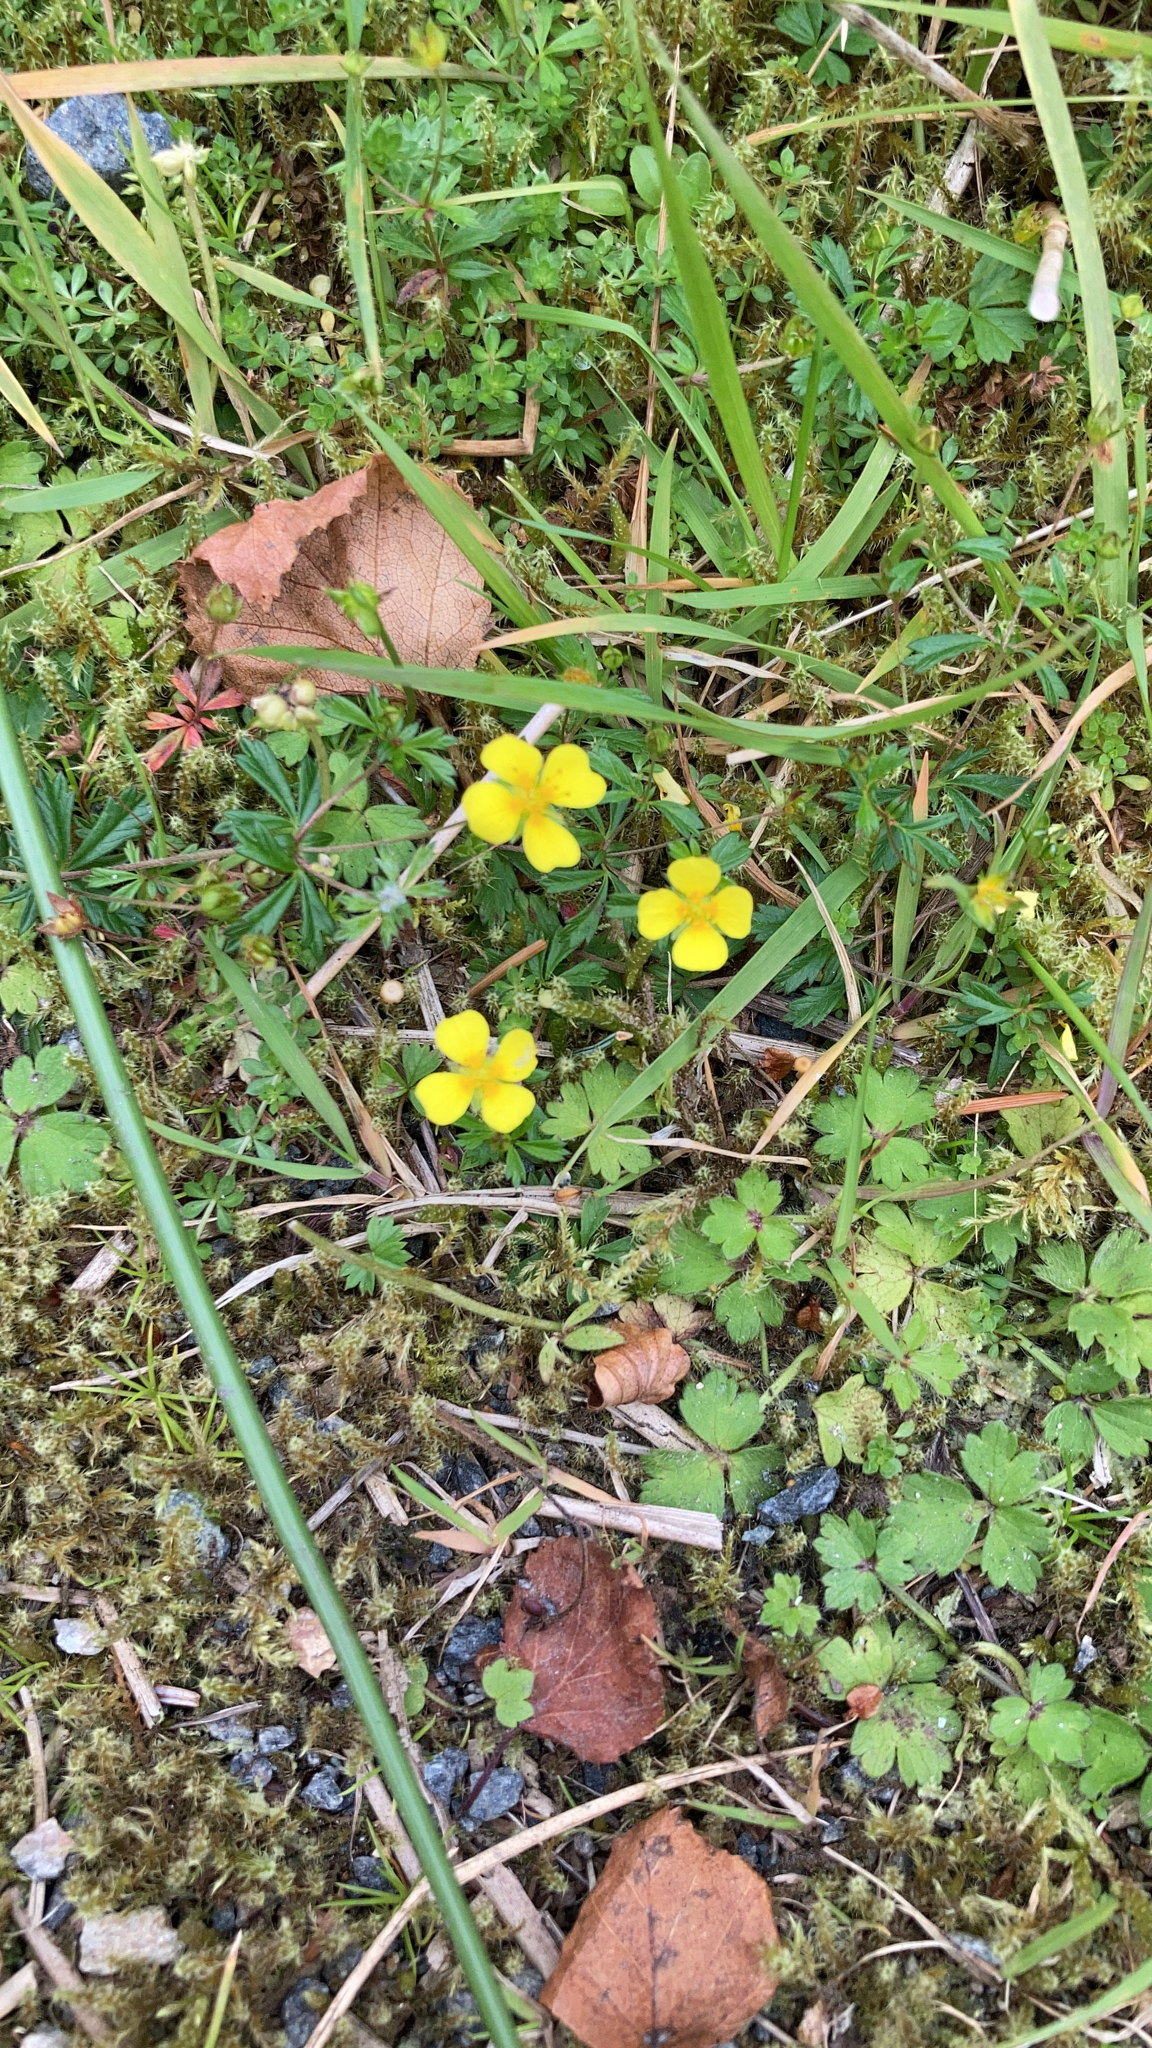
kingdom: Plantae
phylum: Tracheophyta
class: Magnoliopsida
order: Rosales
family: Rosaceae
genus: Potentilla
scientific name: Potentilla erecta
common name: Tormentil
